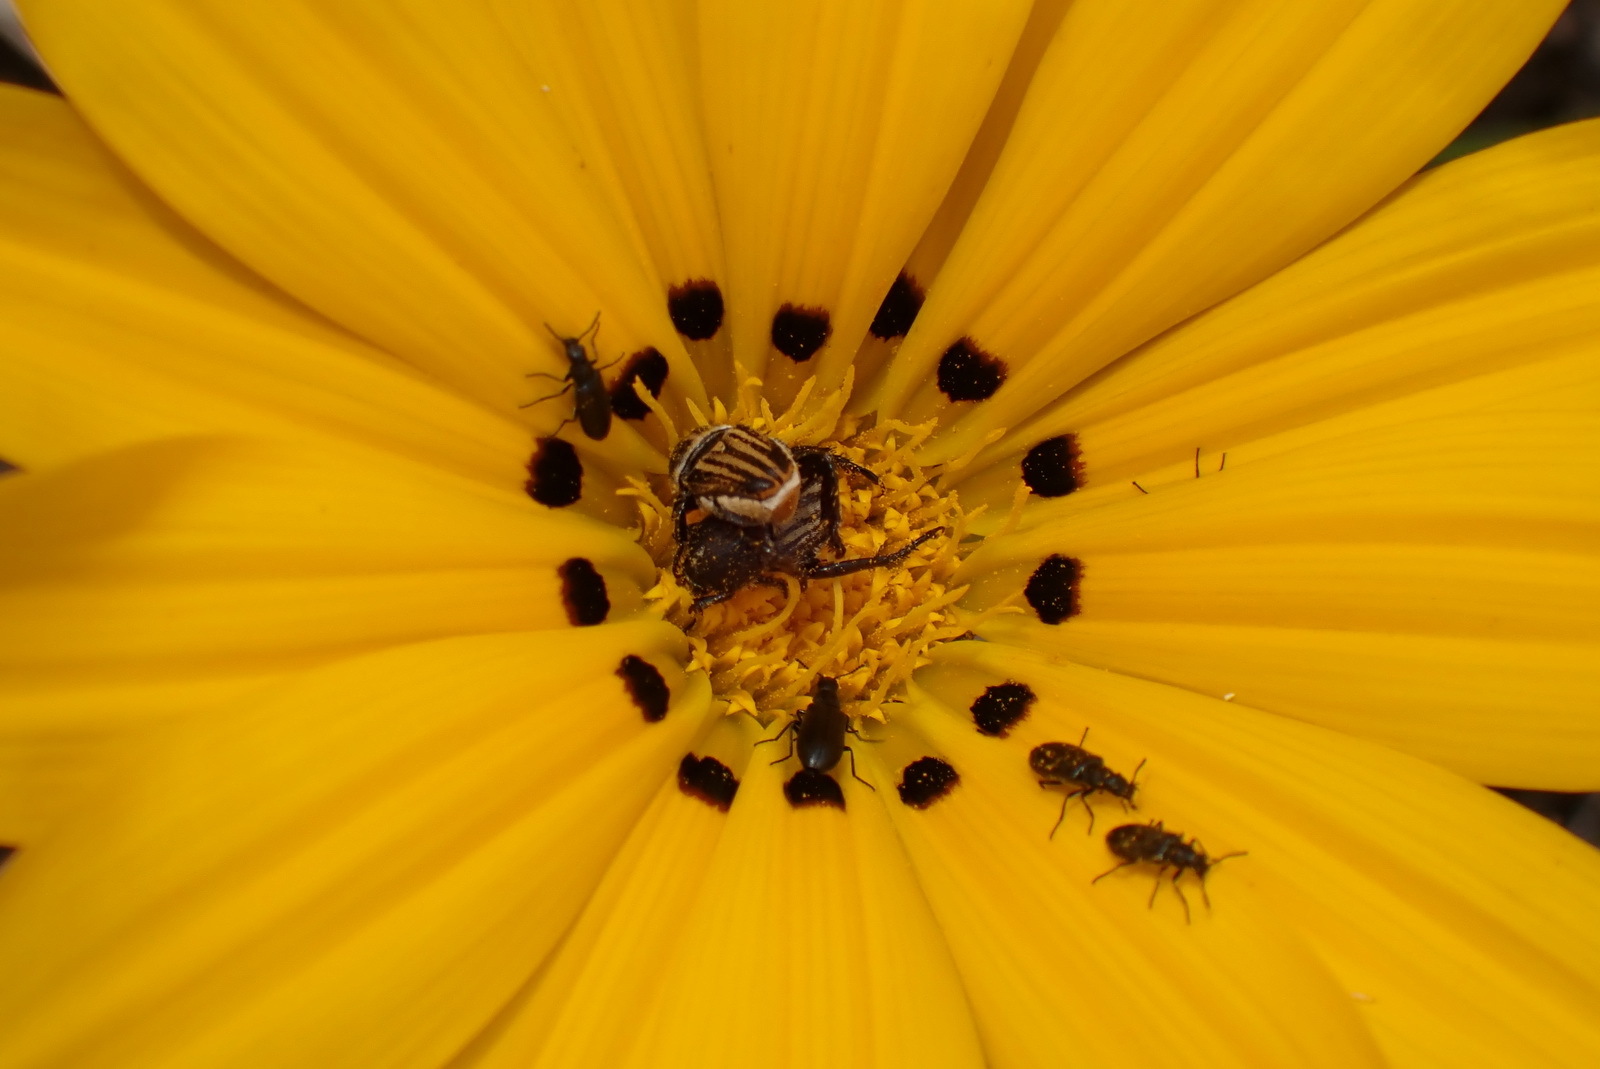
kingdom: Plantae
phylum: Tracheophyta
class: Magnoliopsida
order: Asterales
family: Asteraceae
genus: Gazania
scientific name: Gazania linearis
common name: Treasureflower
